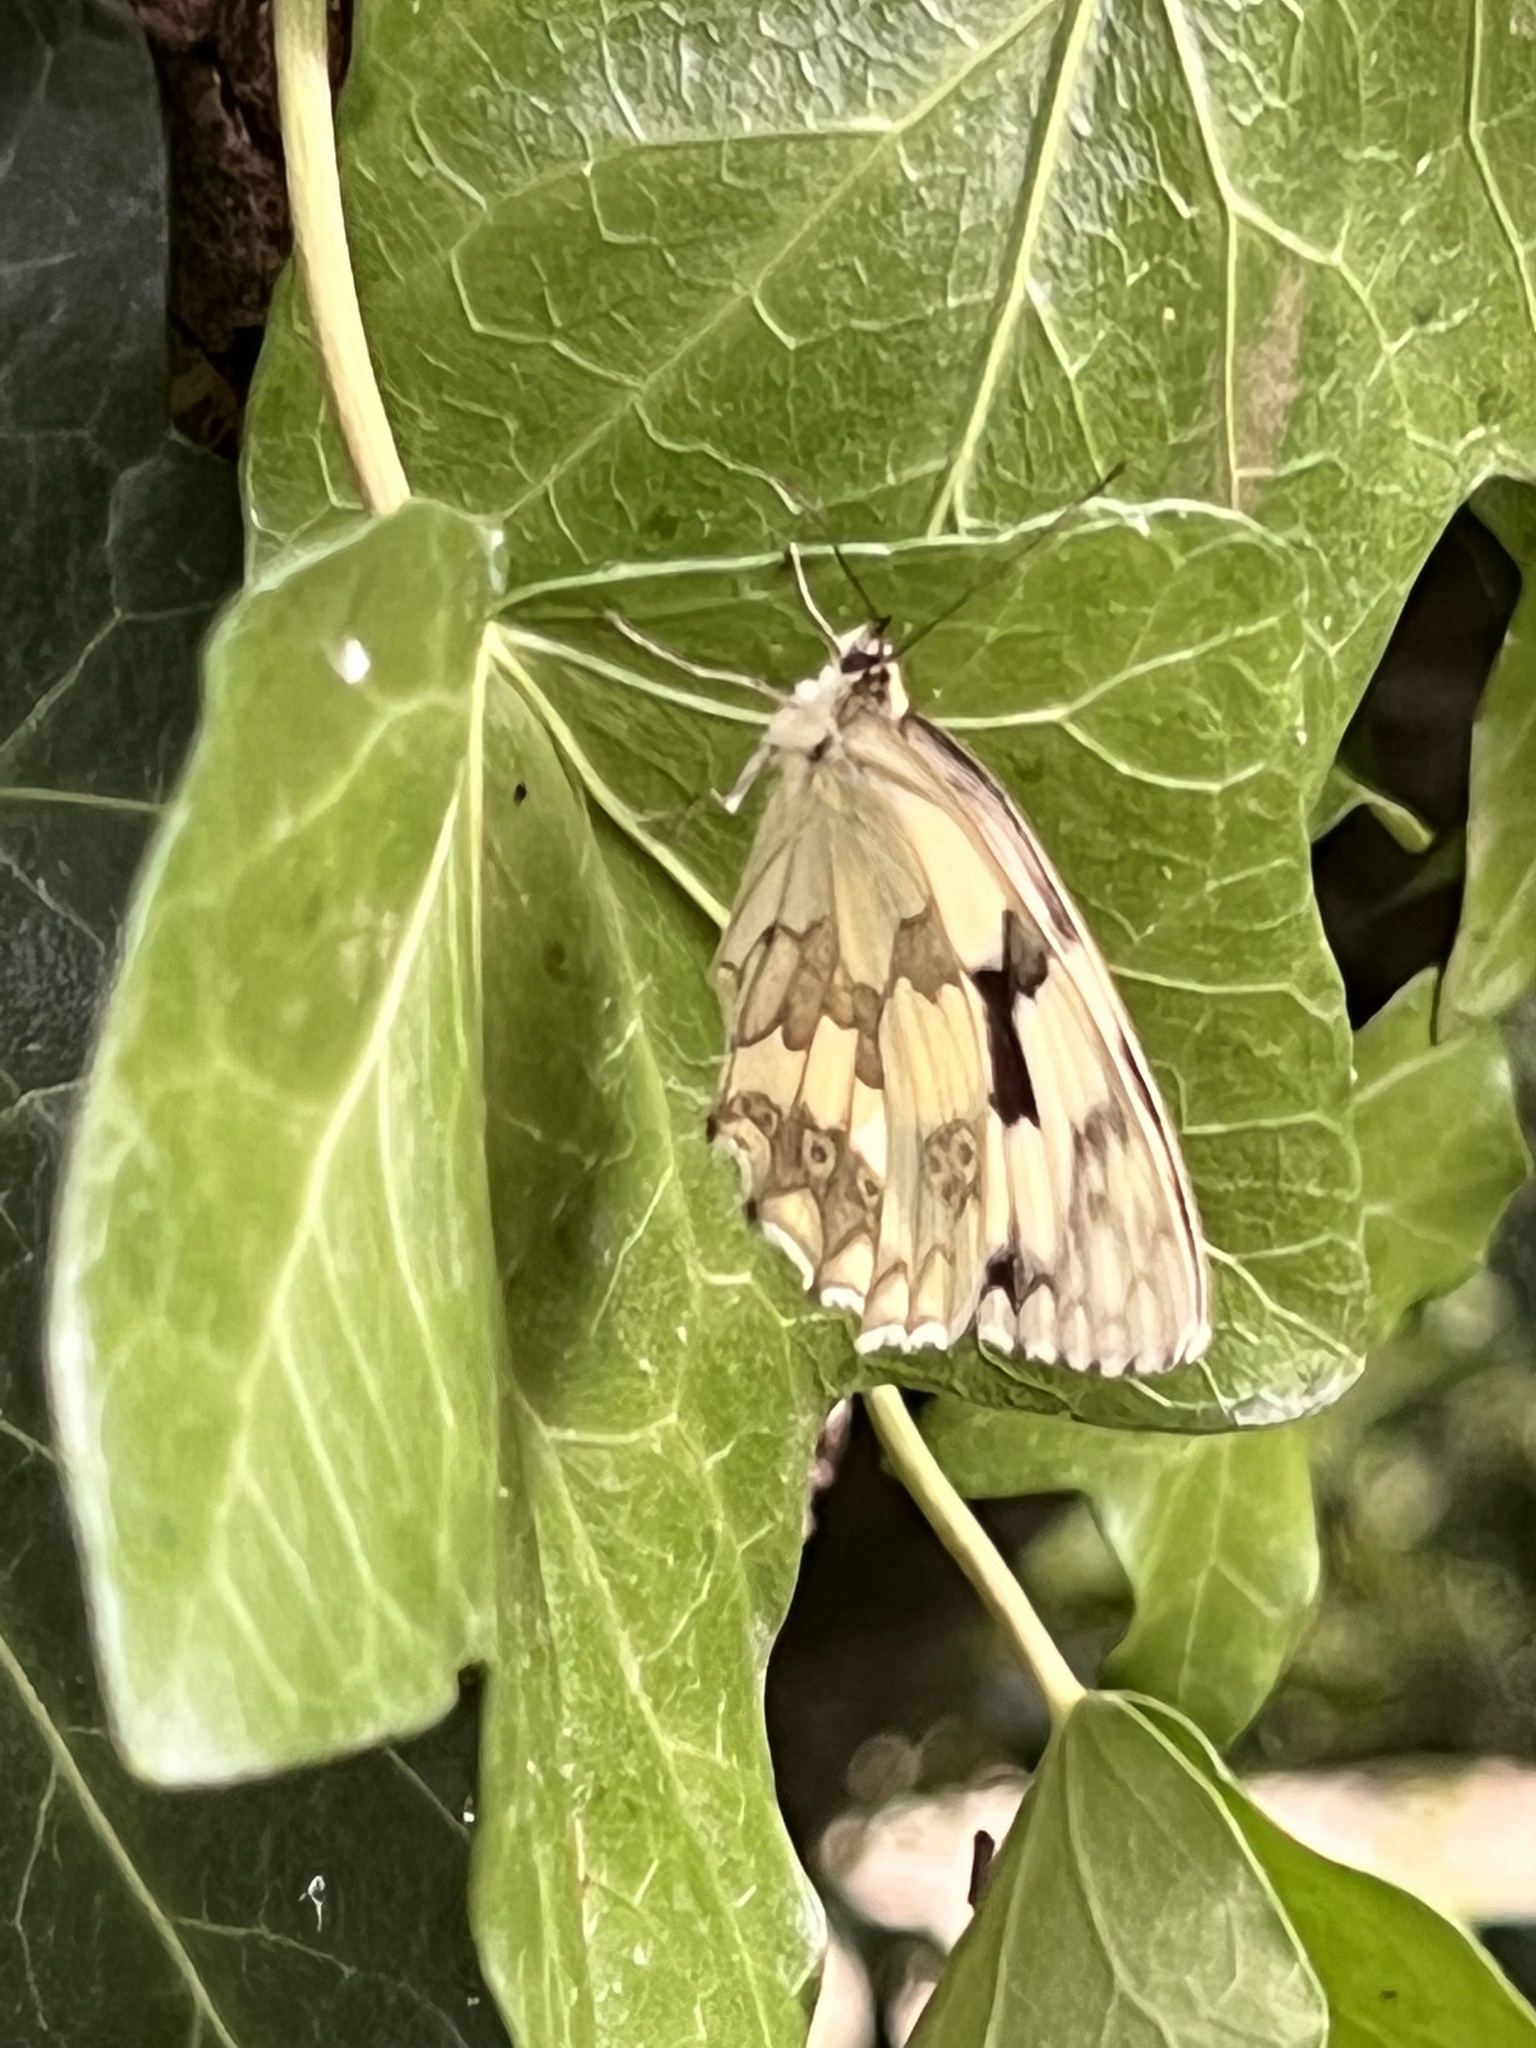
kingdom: Animalia
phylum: Arthropoda
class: Insecta
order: Lepidoptera
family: Nymphalidae
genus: Melanargia
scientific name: Melanargia lachesis
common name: Iberian marbled white
